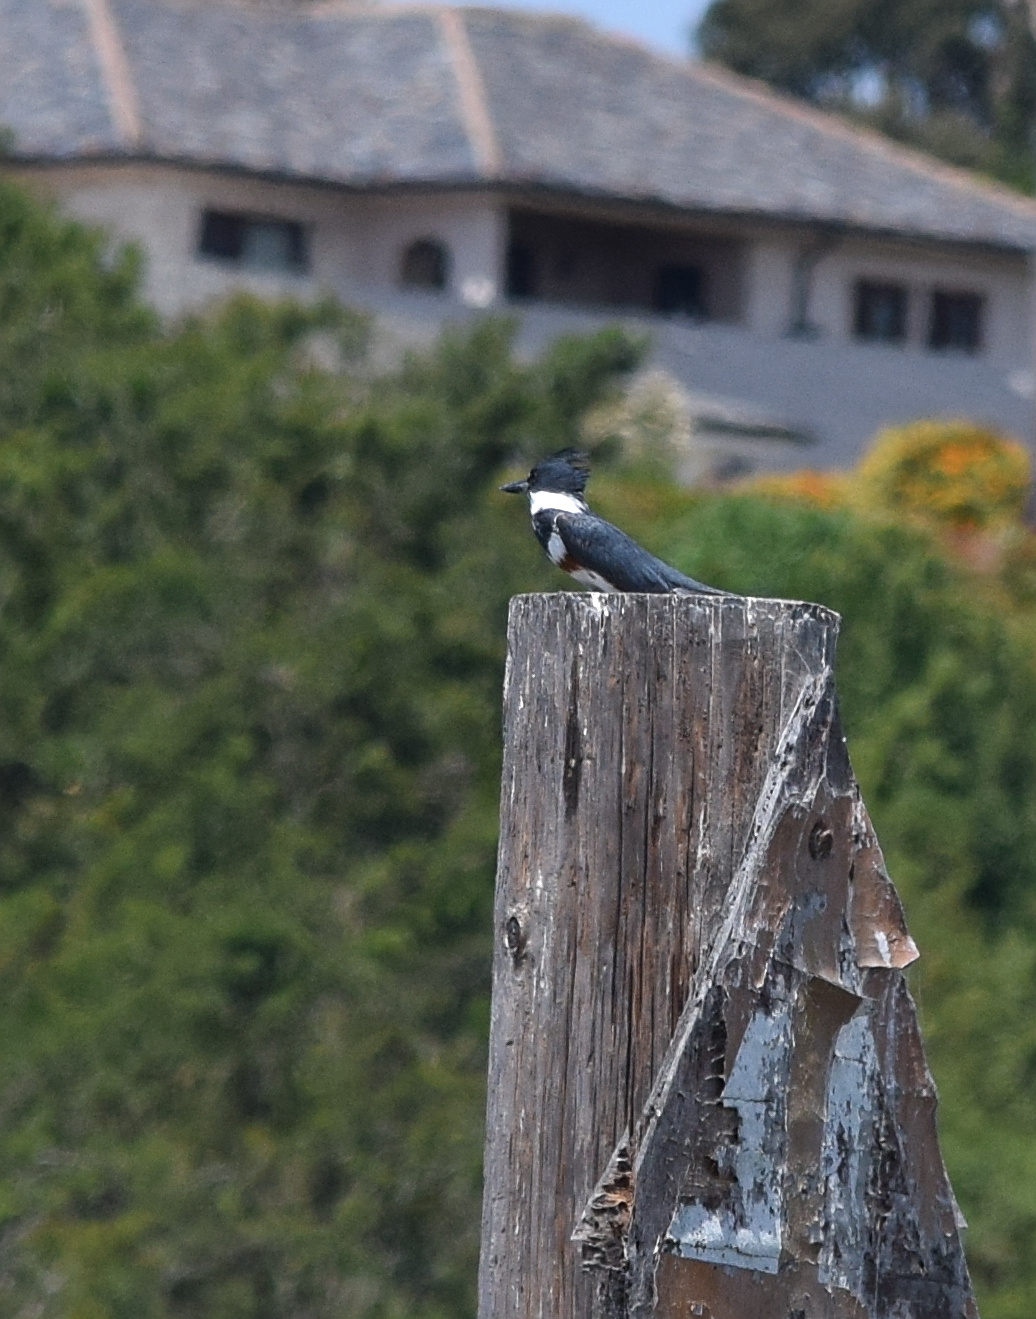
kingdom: Animalia
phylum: Chordata
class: Aves
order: Coraciiformes
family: Alcedinidae
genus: Megaceryle
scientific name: Megaceryle alcyon
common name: Belted kingfisher
